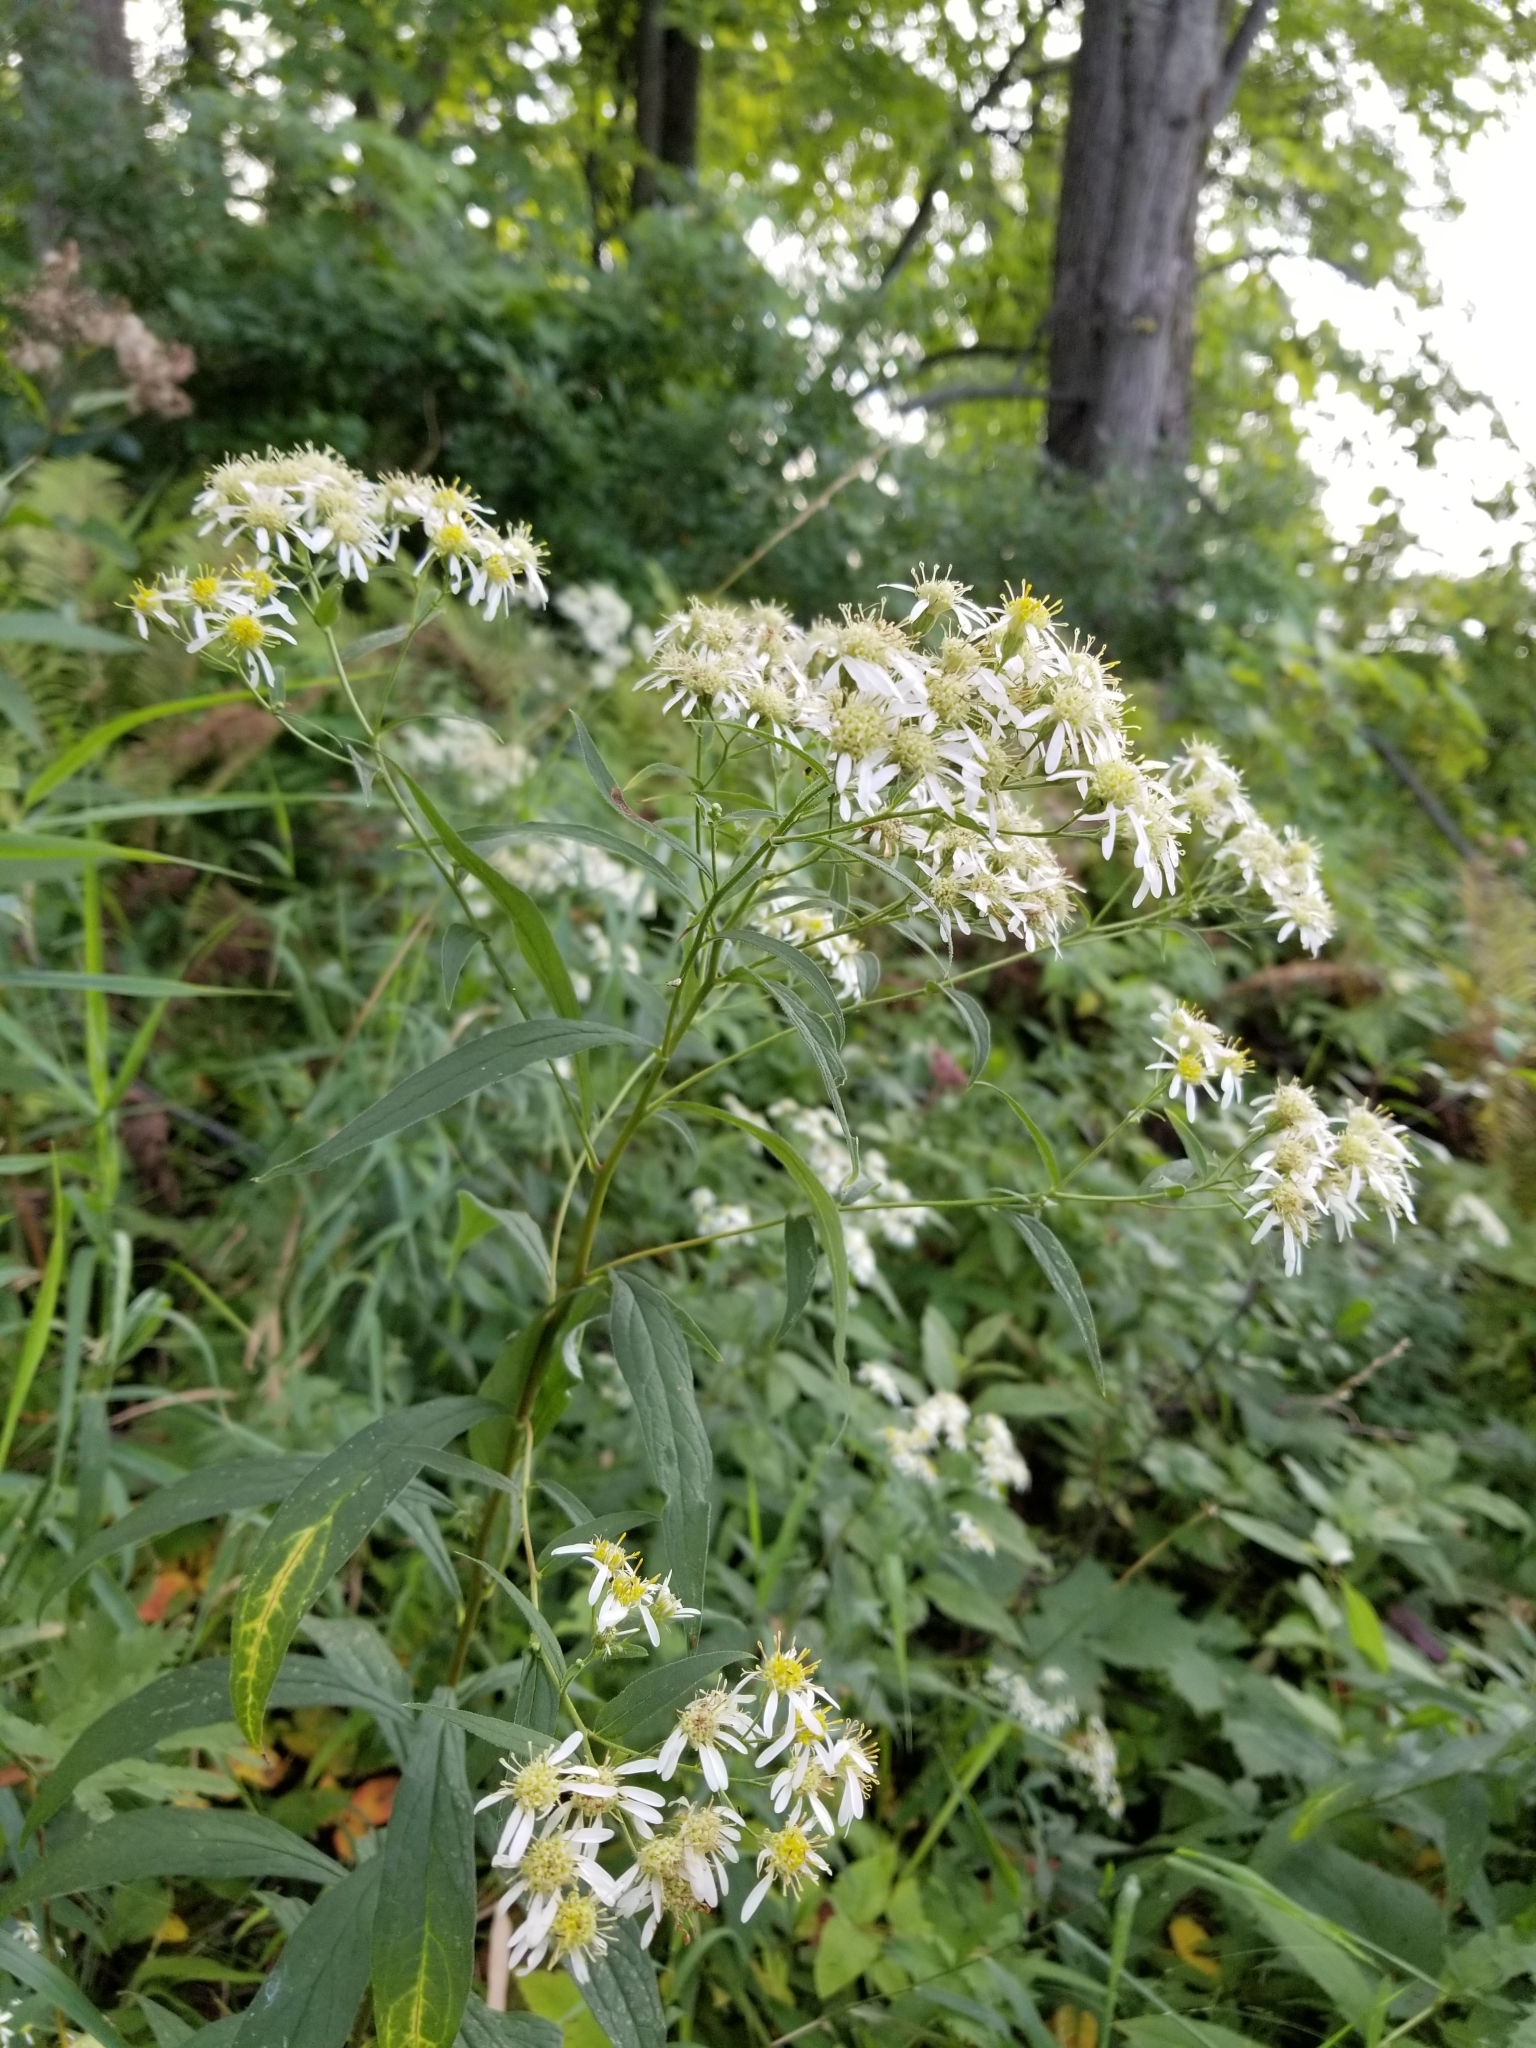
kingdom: Plantae
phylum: Tracheophyta
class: Magnoliopsida
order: Asterales
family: Asteraceae
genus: Doellingeria
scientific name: Doellingeria umbellata
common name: Flat-top white aster
